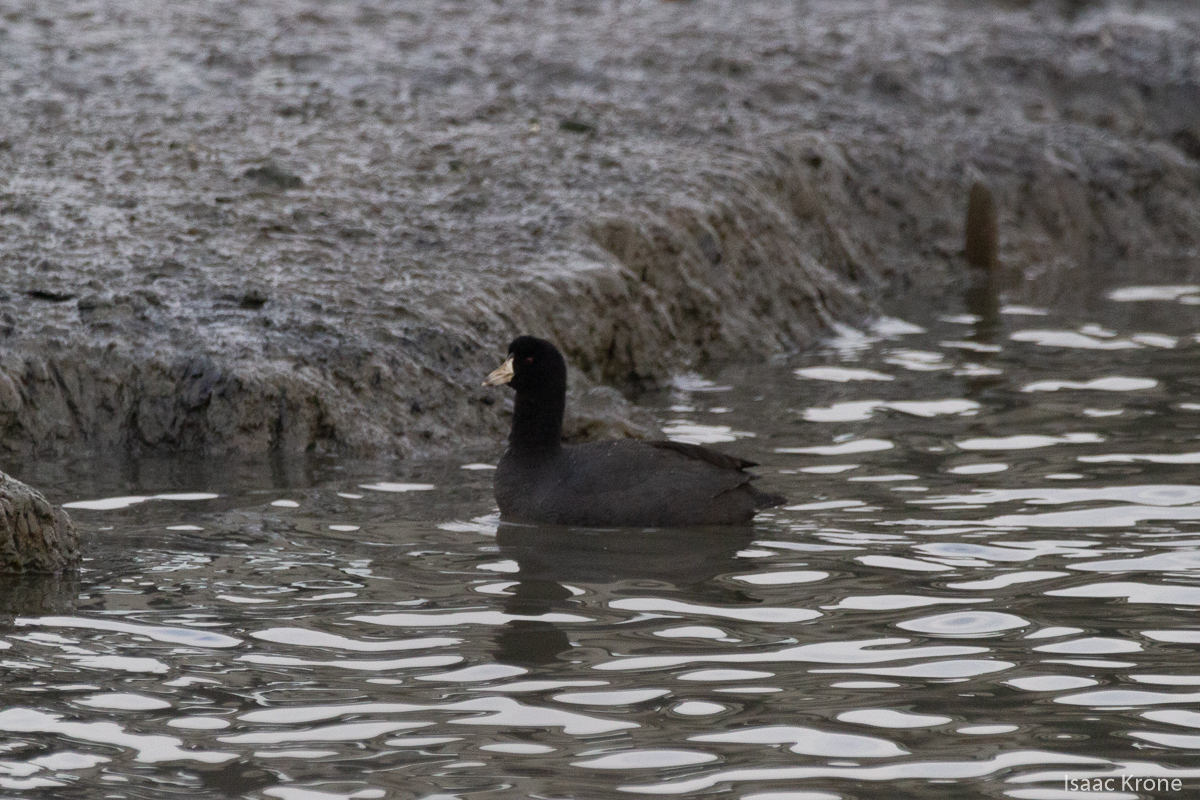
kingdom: Animalia
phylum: Chordata
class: Aves
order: Gruiformes
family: Rallidae
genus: Fulica
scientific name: Fulica americana
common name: American coot
